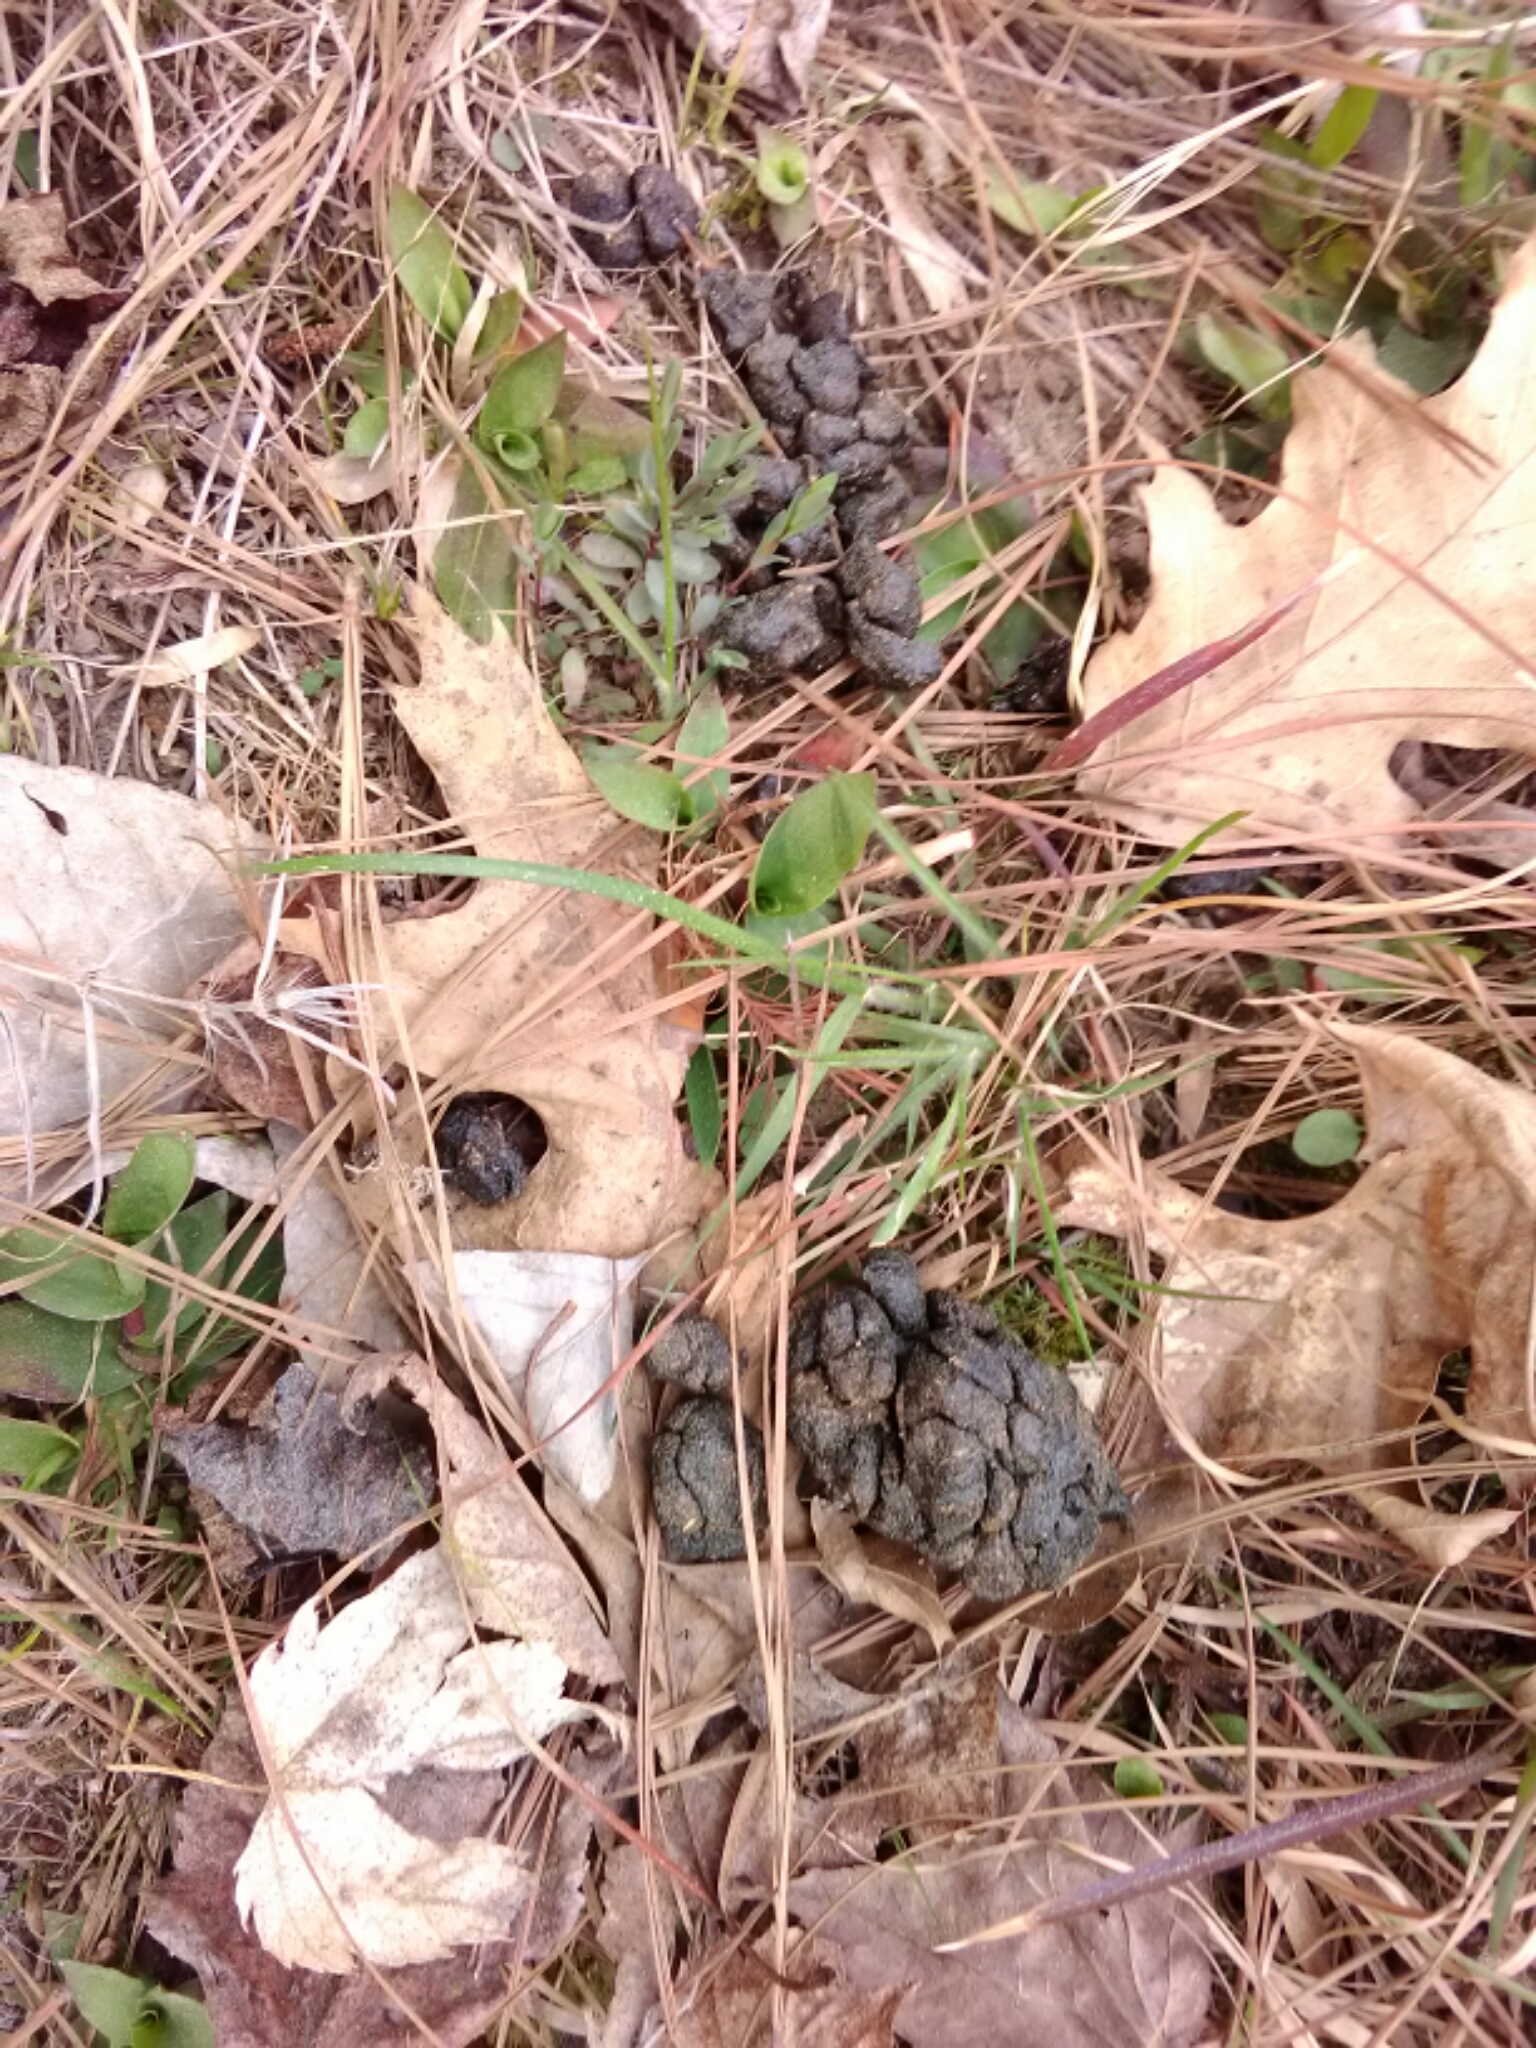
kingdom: Animalia
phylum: Chordata
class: Mammalia
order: Artiodactyla
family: Cervidae
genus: Odocoileus
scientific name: Odocoileus virginianus
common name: White-tailed deer
